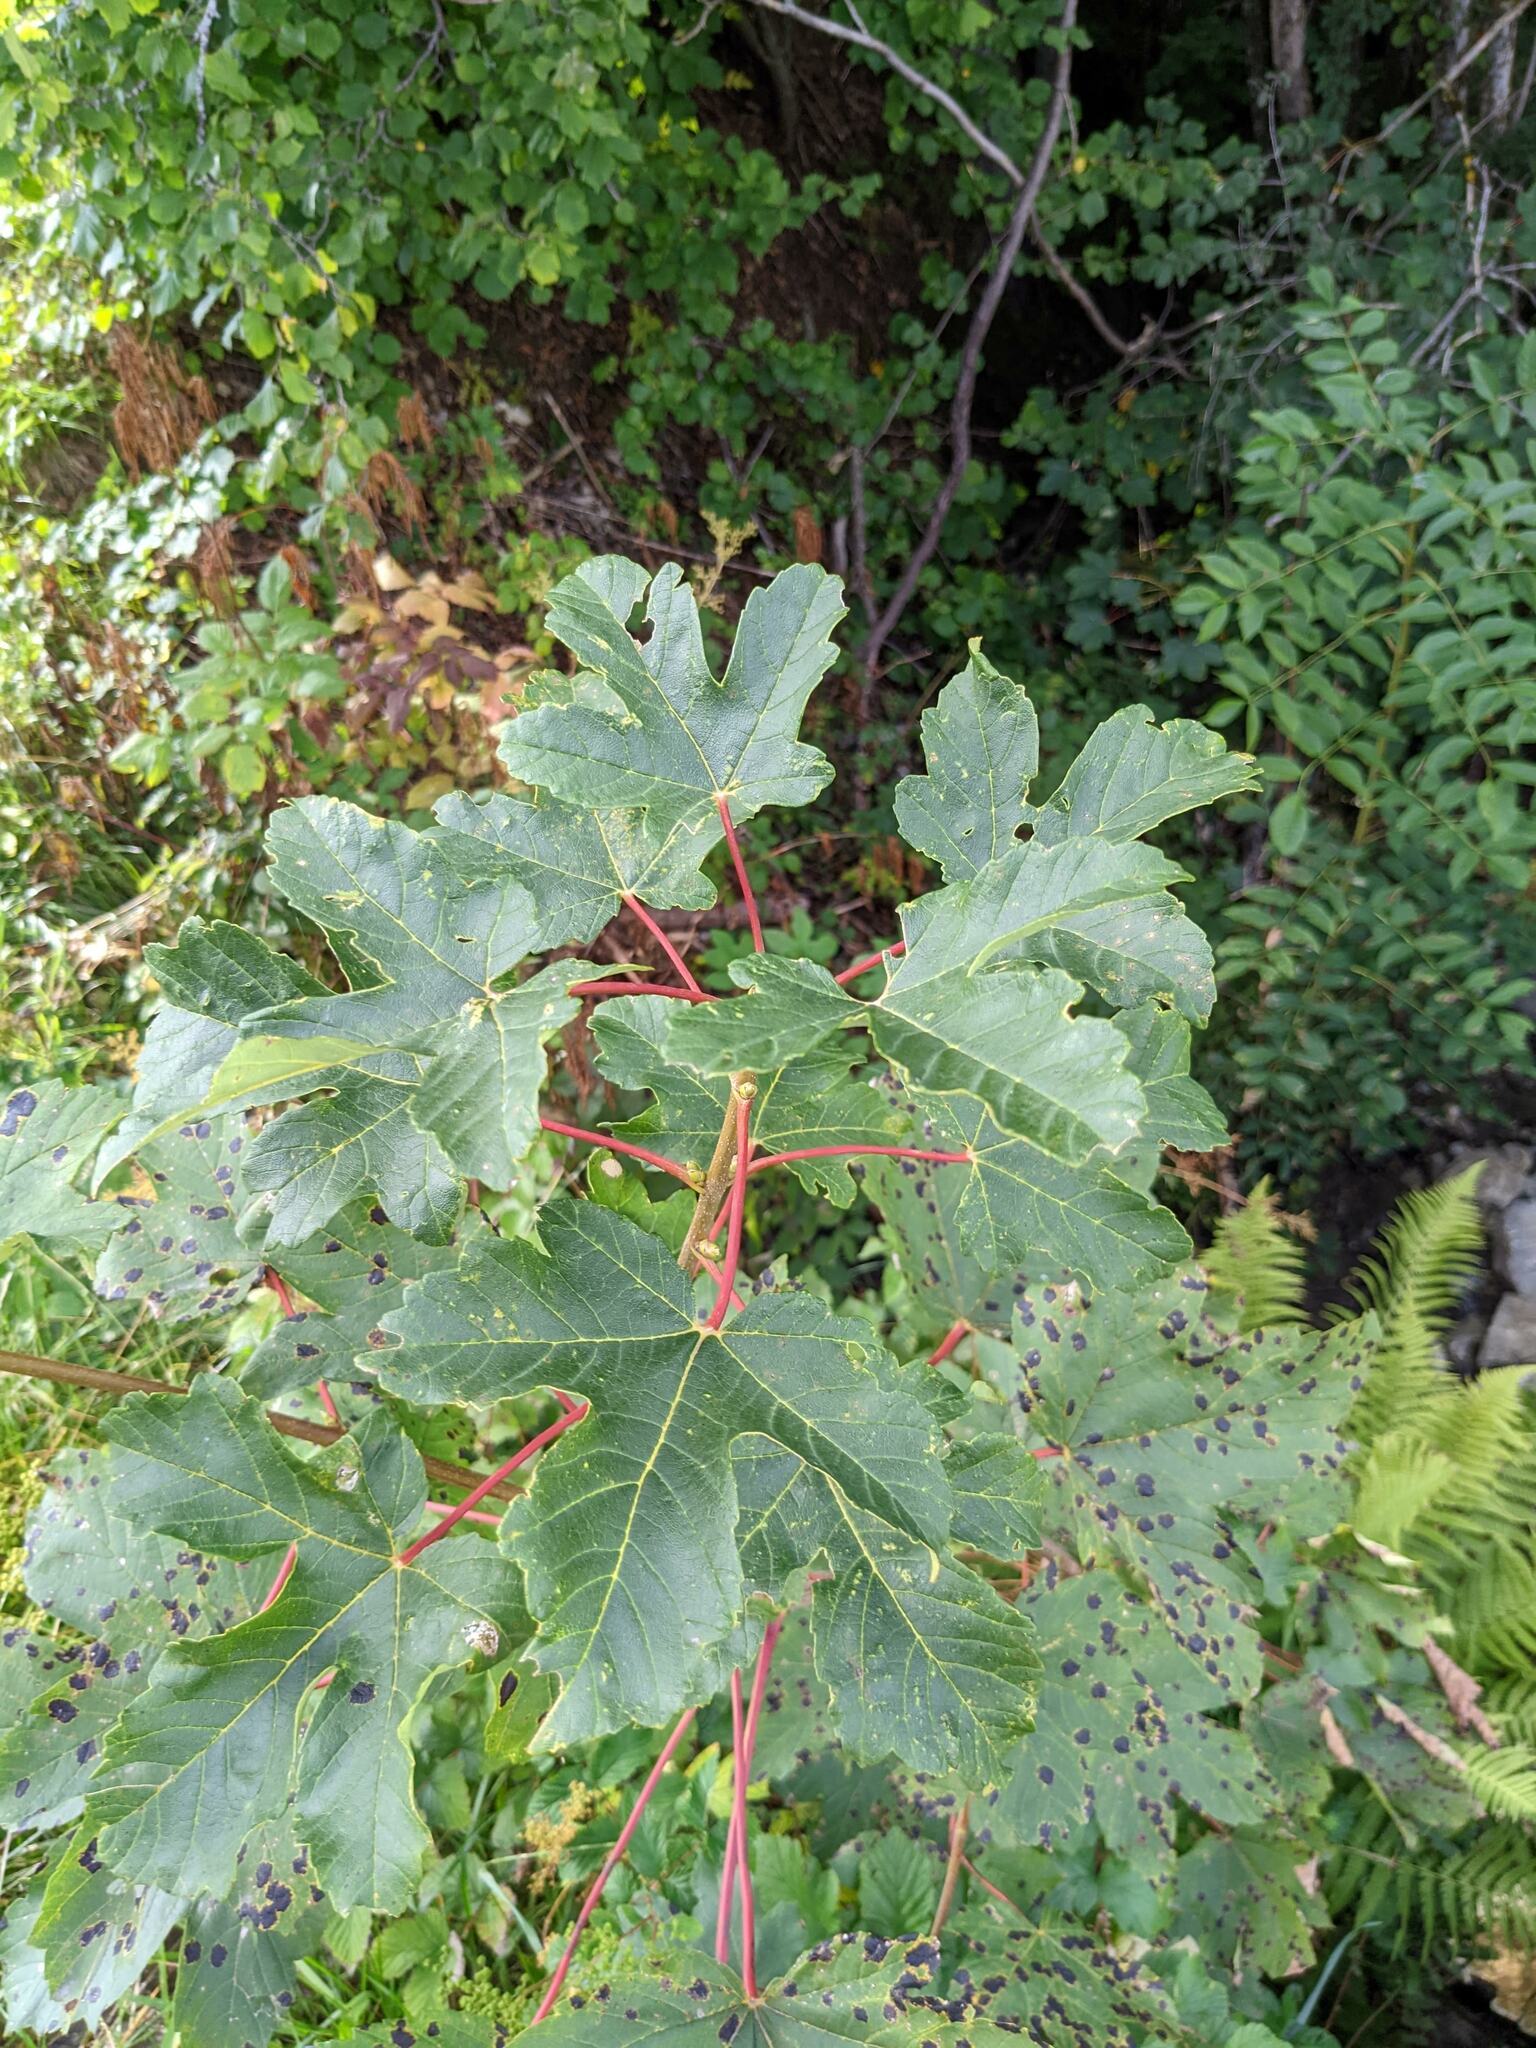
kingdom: Plantae
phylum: Tracheophyta
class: Magnoliopsida
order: Sapindales
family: Sapindaceae
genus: Acer
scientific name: Acer pseudoplatanus
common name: Sycamore
